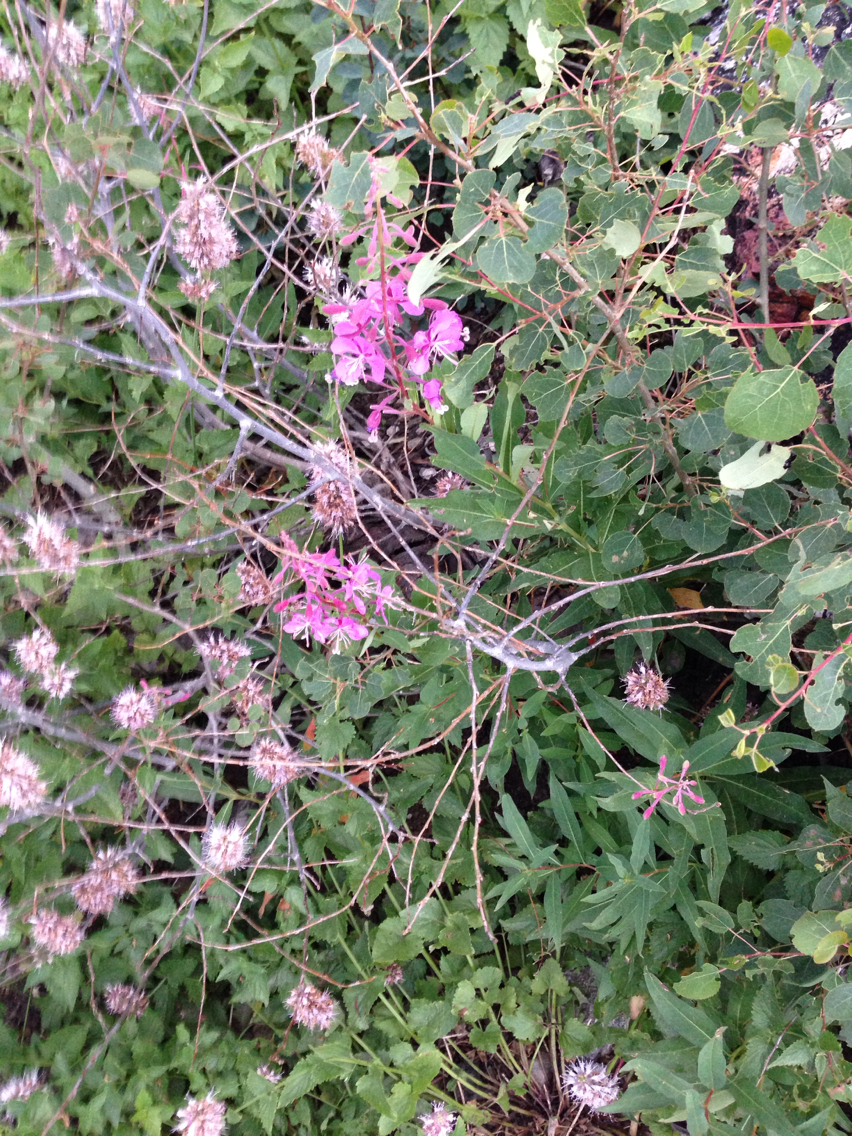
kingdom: Plantae
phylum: Tracheophyta
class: Magnoliopsida
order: Myrtales
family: Onagraceae
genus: Chamaenerion
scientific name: Chamaenerion angustifolium
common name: Fireweed
